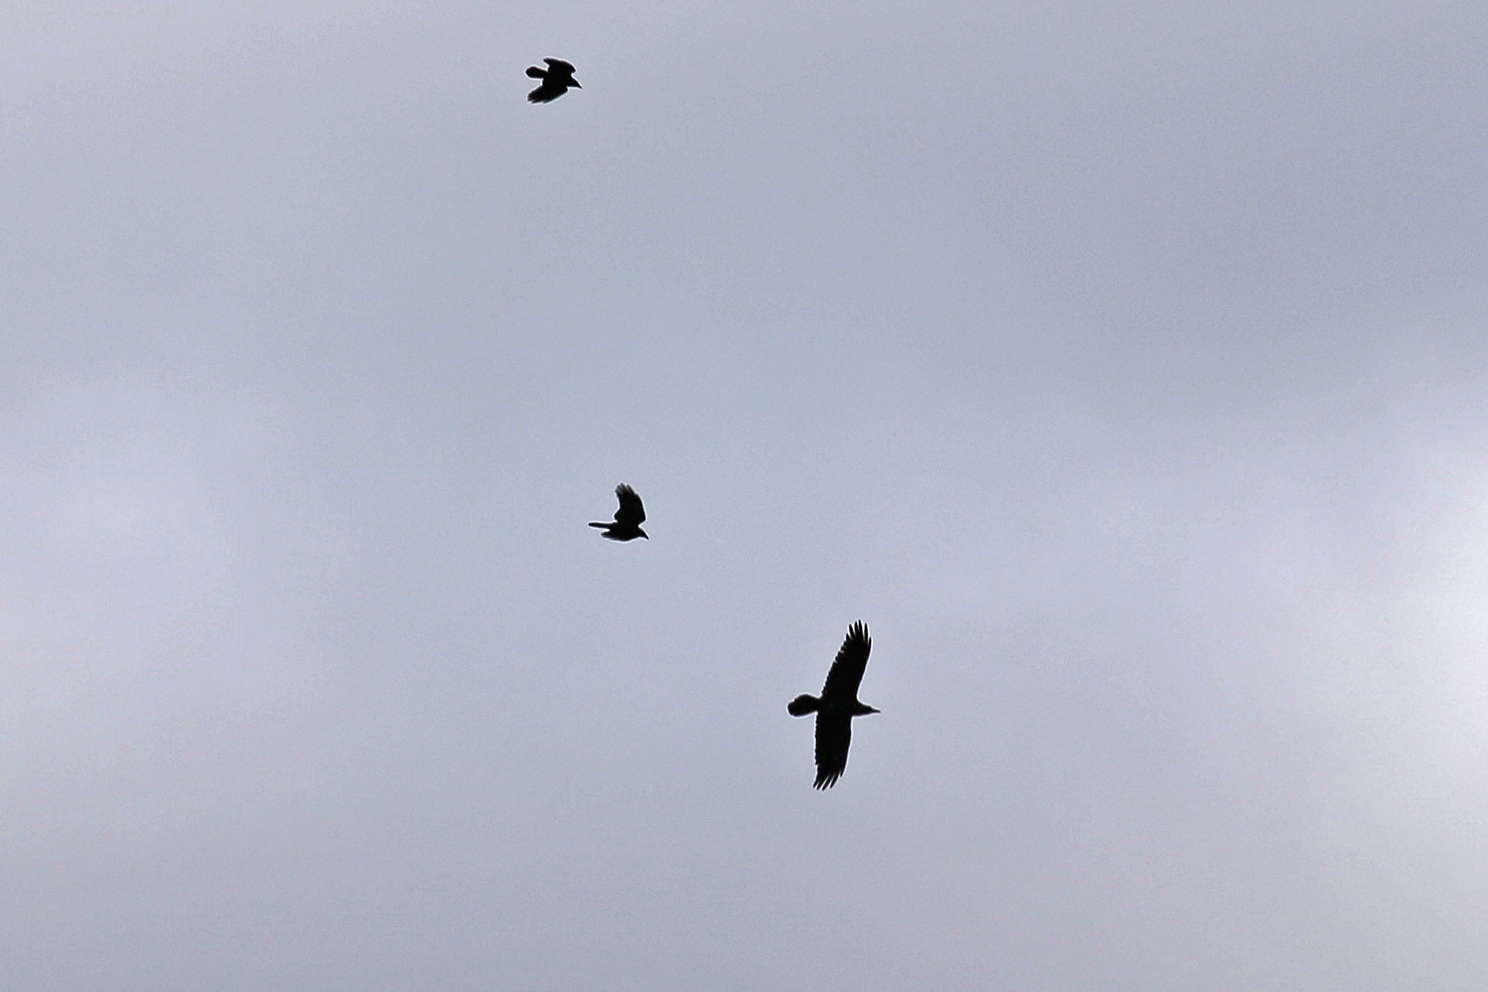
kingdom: Animalia
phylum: Chordata
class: Aves
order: Passeriformes
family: Corvidae
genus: Corvus
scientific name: Corvus corax
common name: Common raven
